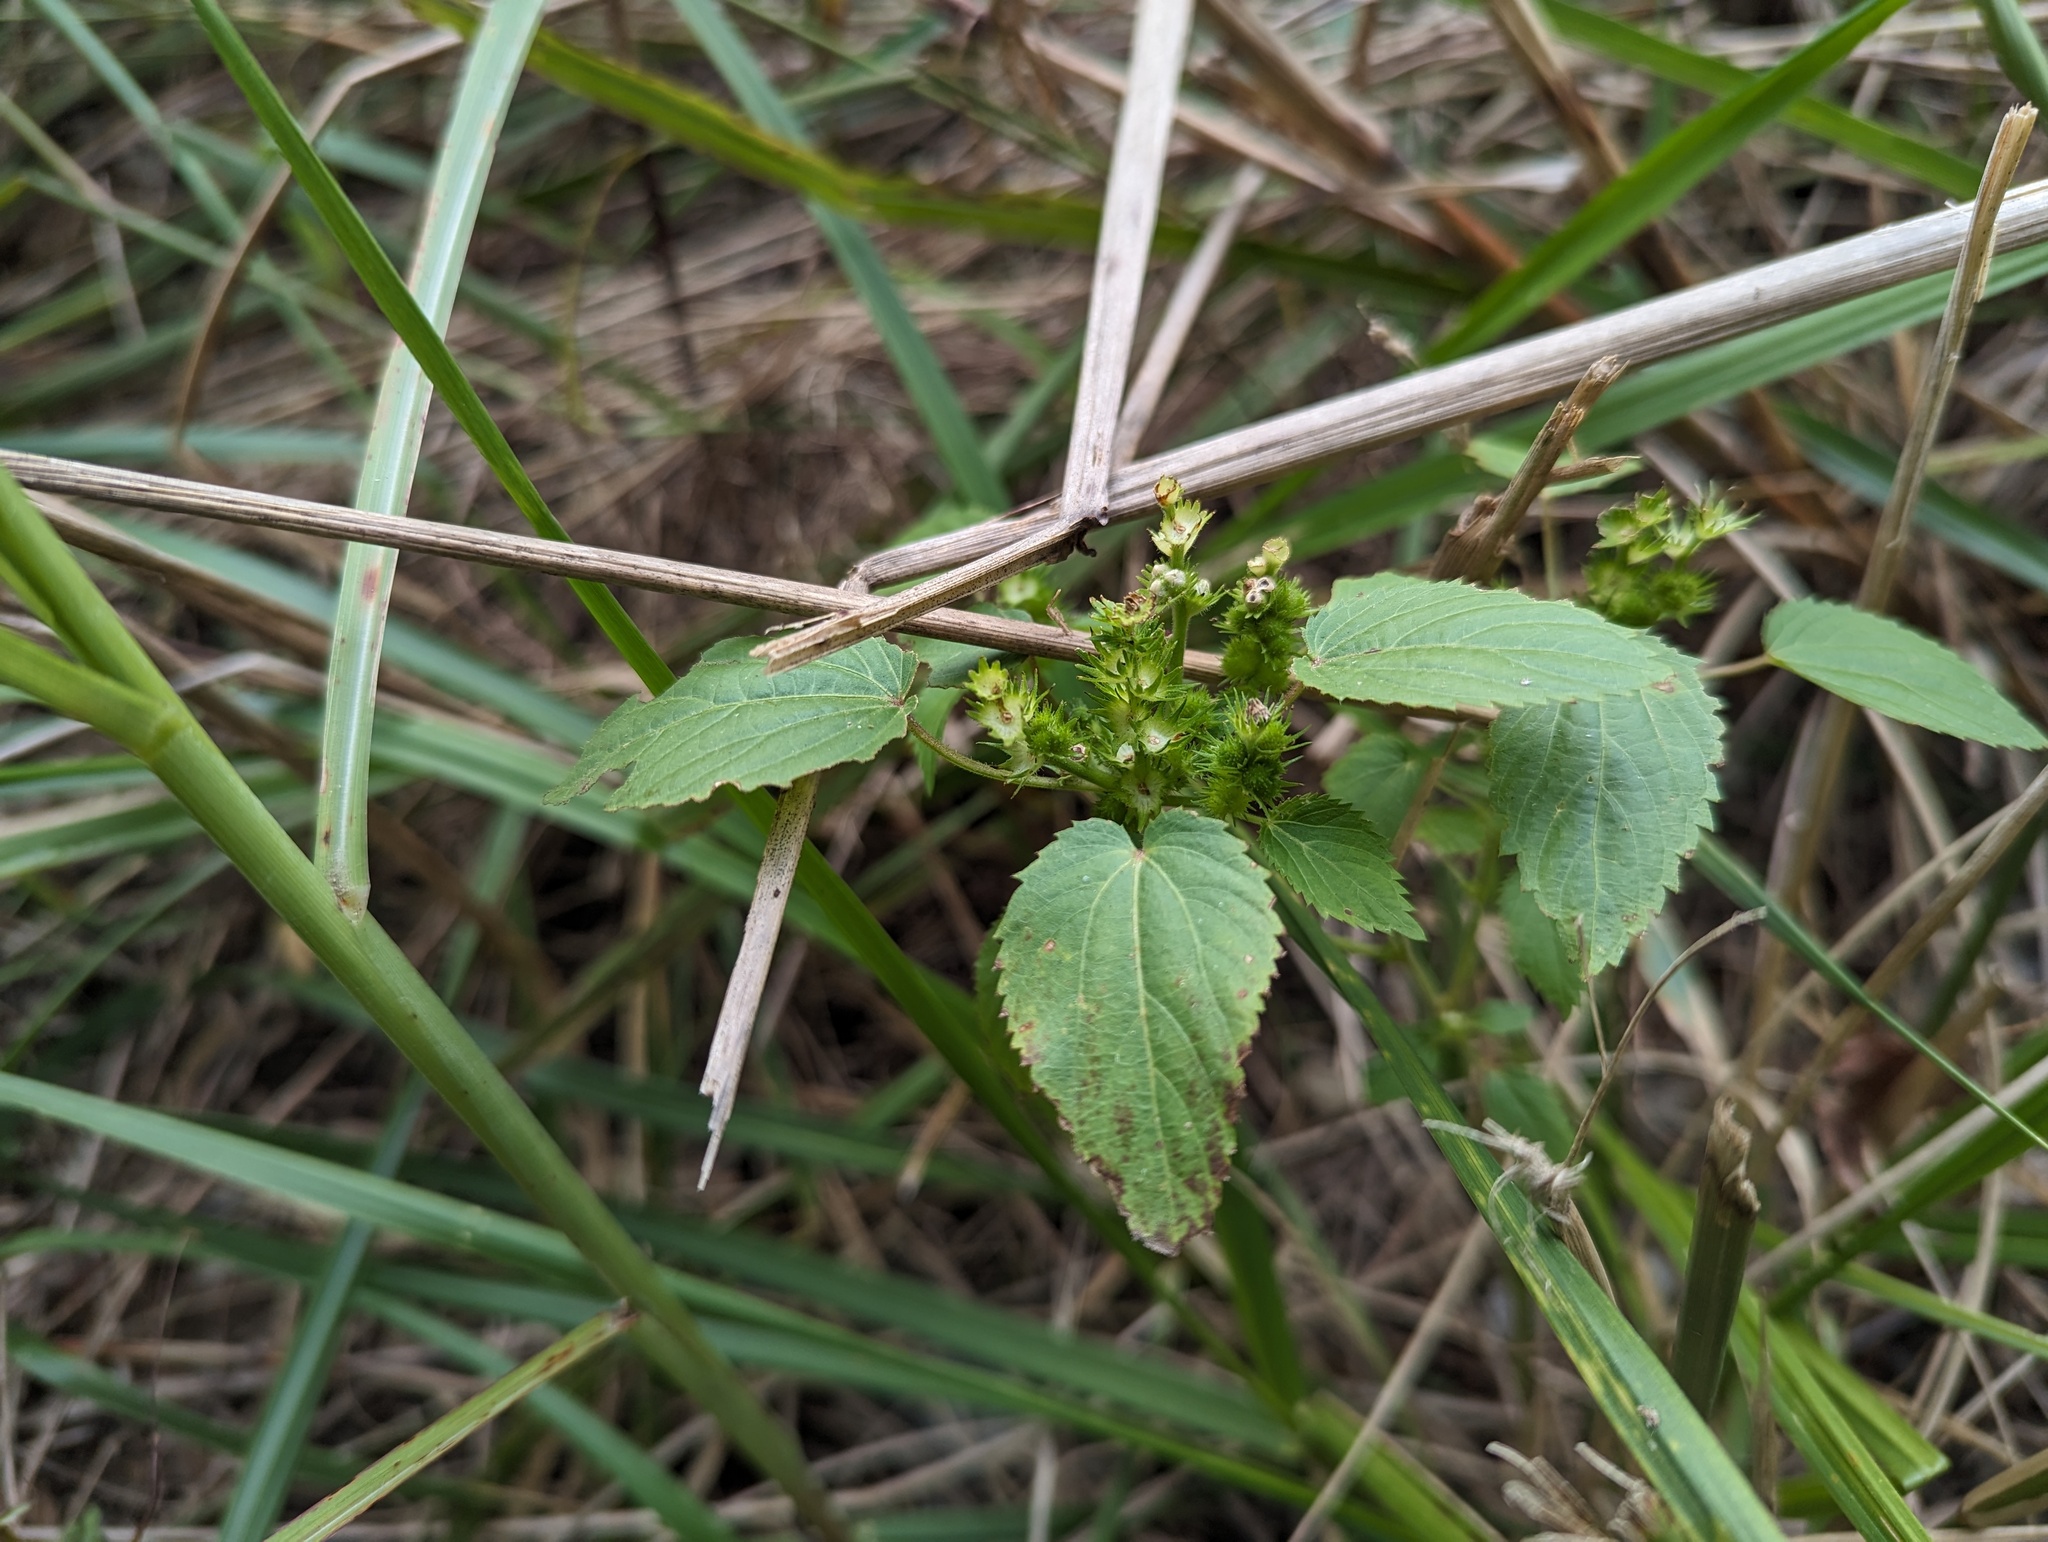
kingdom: Plantae
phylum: Tracheophyta
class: Magnoliopsida
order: Malpighiales
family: Euphorbiaceae
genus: Acalypha
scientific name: Acalypha ostryifolia
